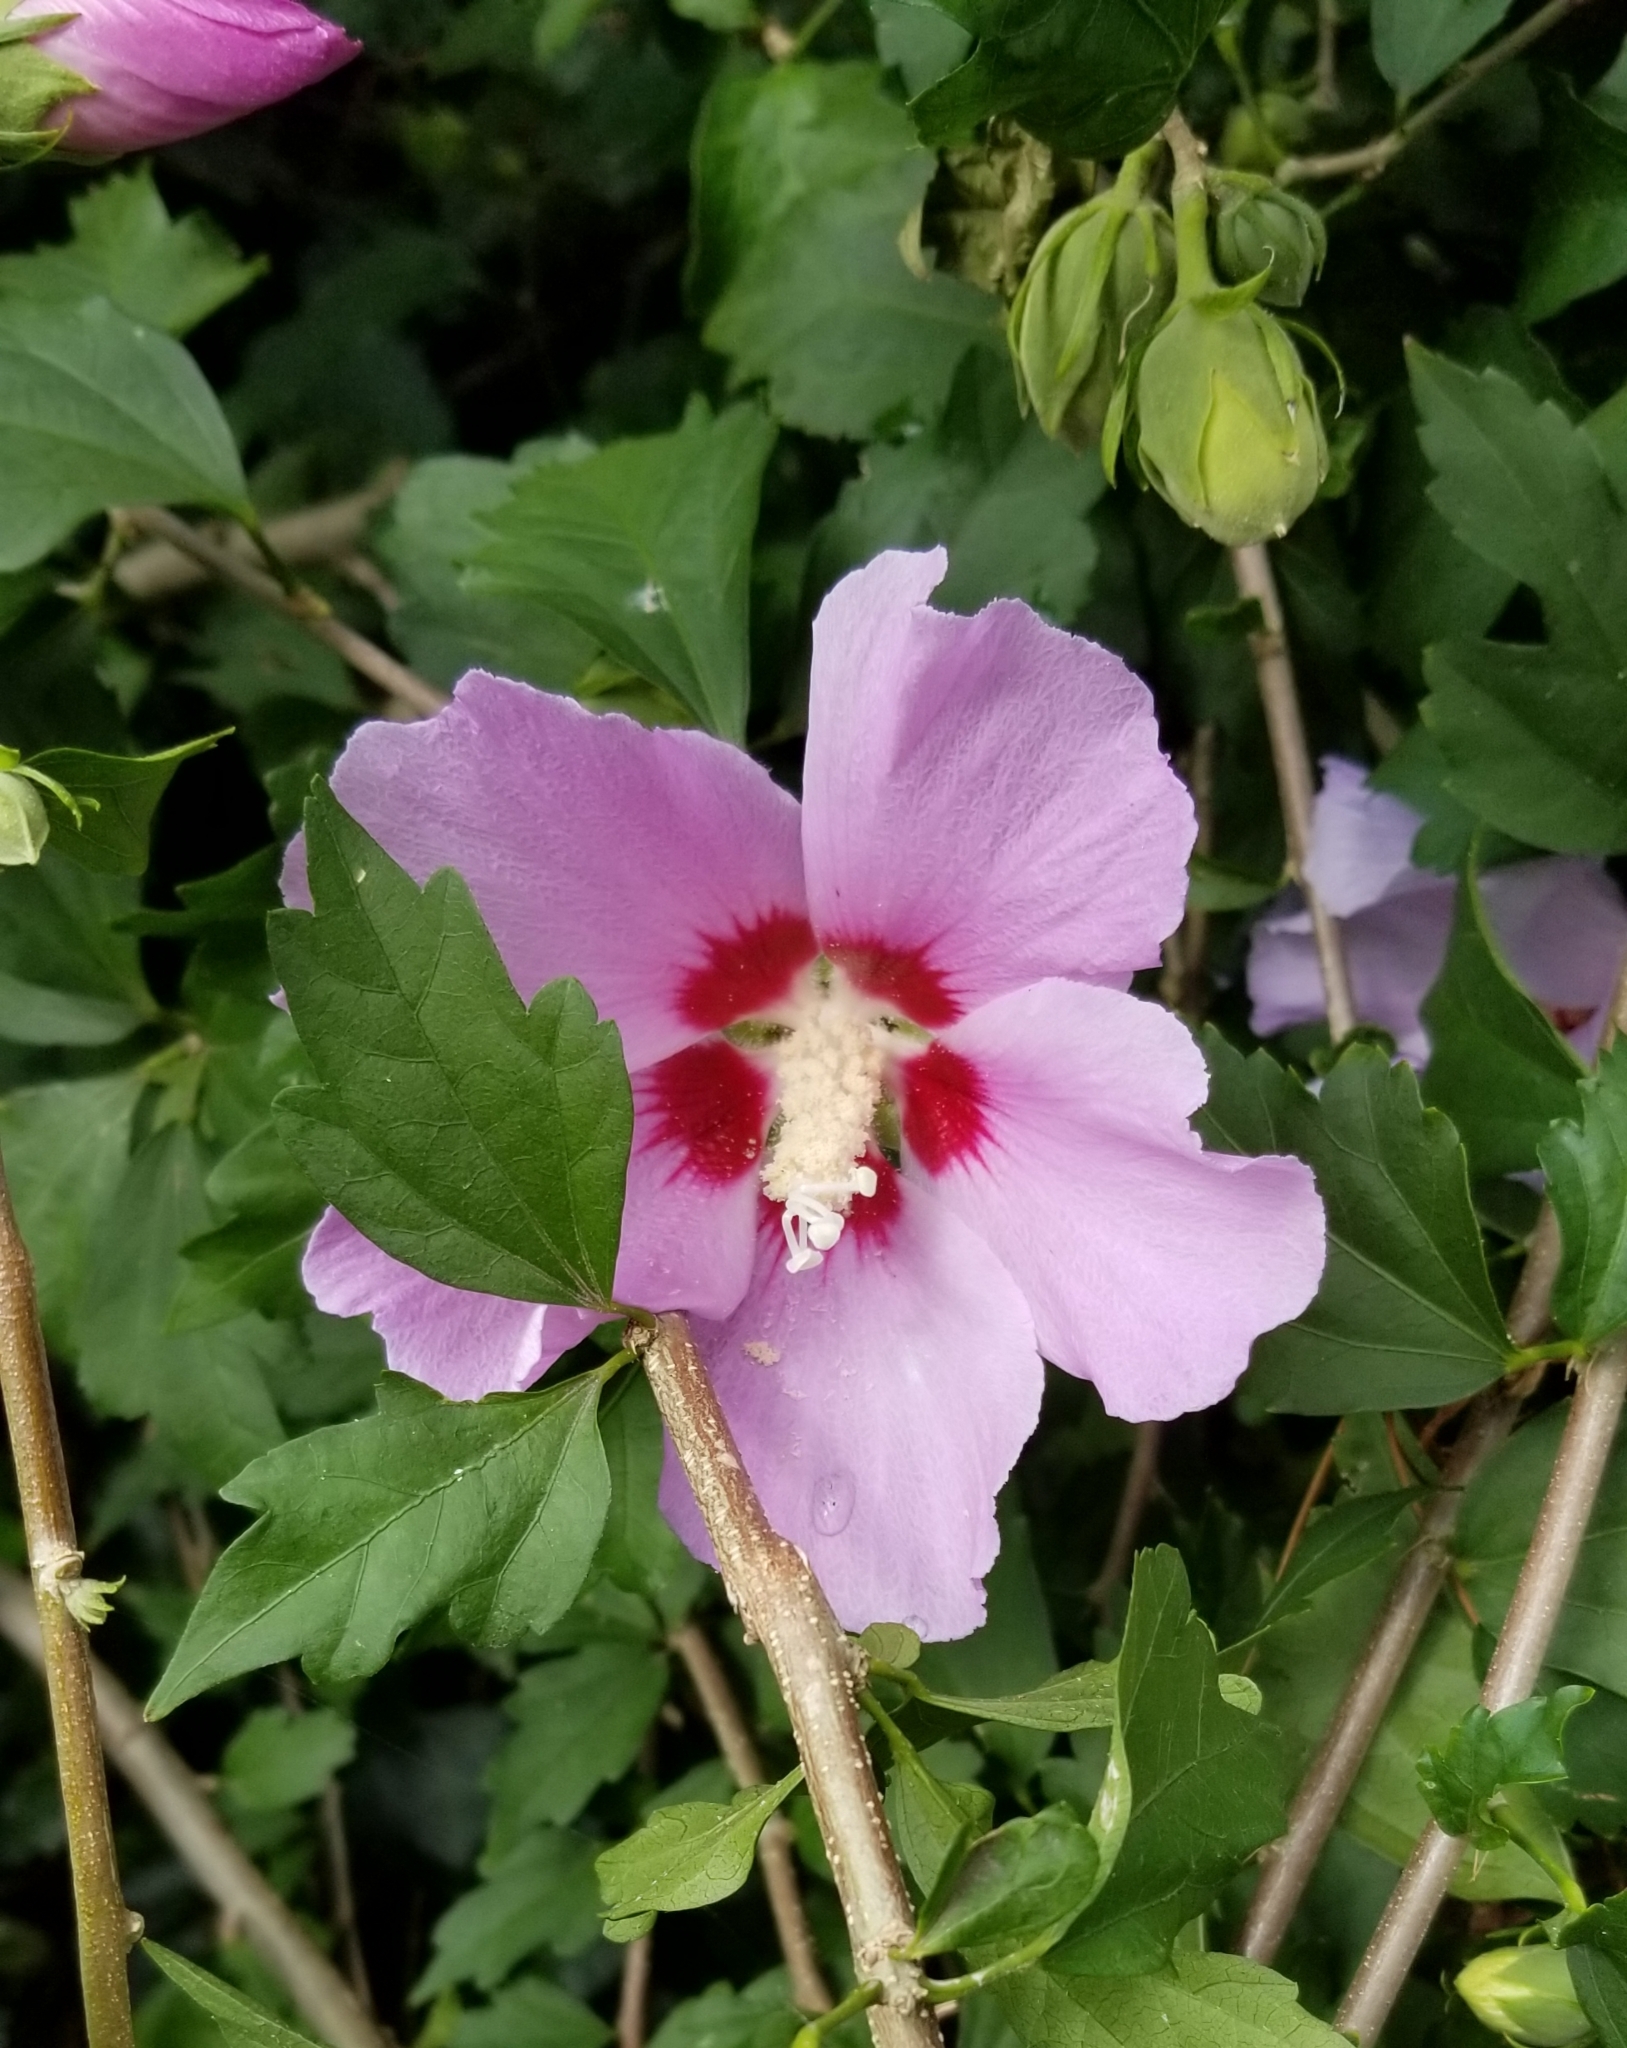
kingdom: Plantae
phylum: Tracheophyta
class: Magnoliopsida
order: Malvales
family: Malvaceae
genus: Hibiscus
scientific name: Hibiscus syriacus
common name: Syrian ketmia
